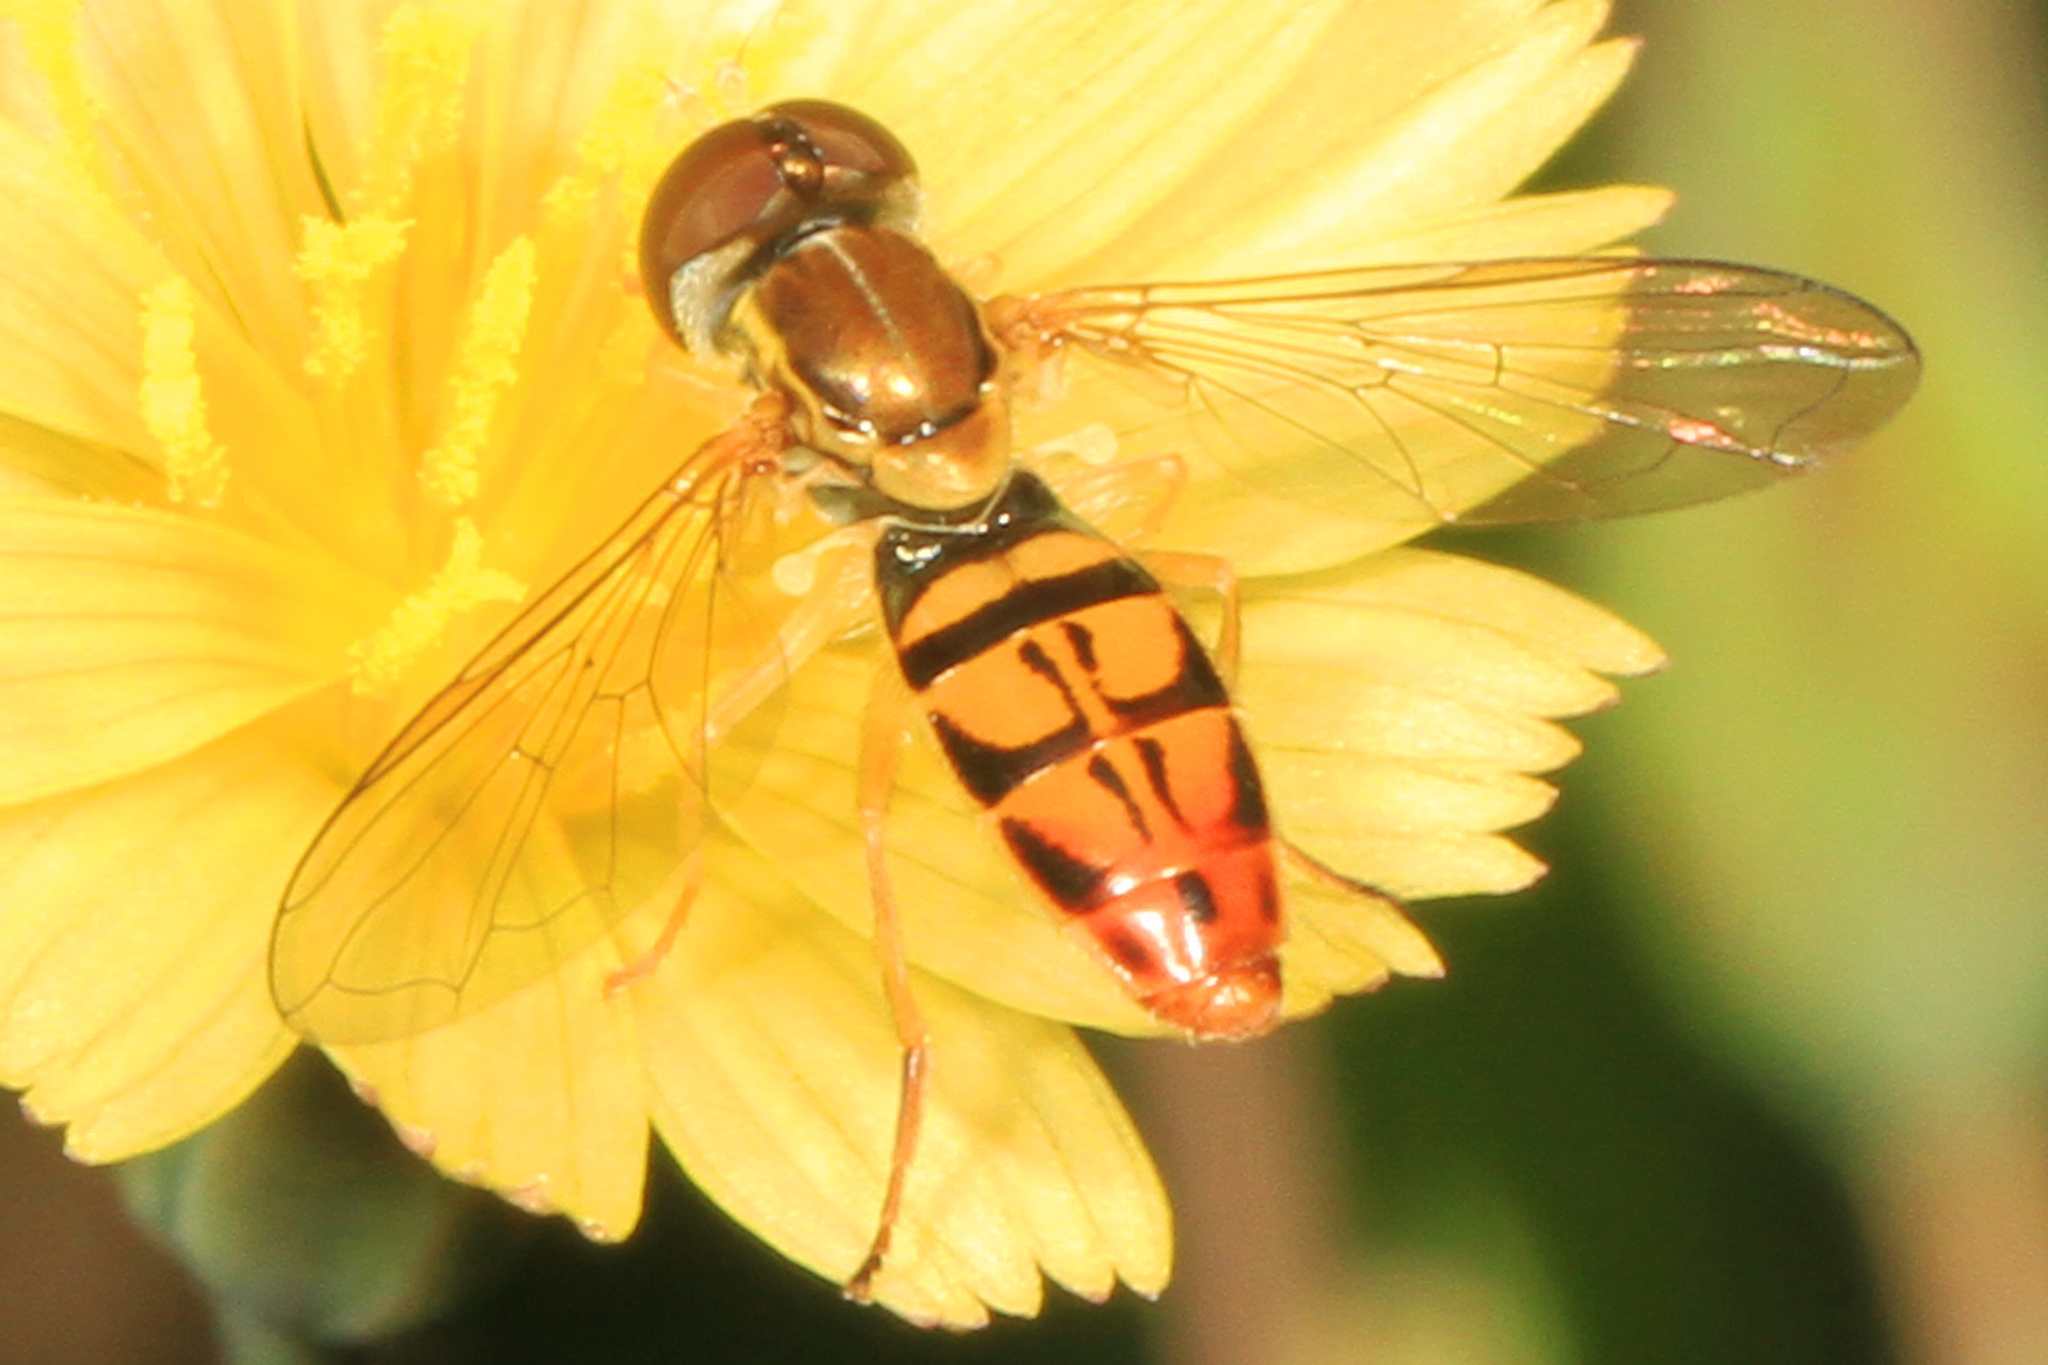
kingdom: Animalia
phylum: Arthropoda
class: Insecta
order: Diptera
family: Syrphidae
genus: Toxomerus
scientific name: Toxomerus marginatus
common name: Syrphid fly
